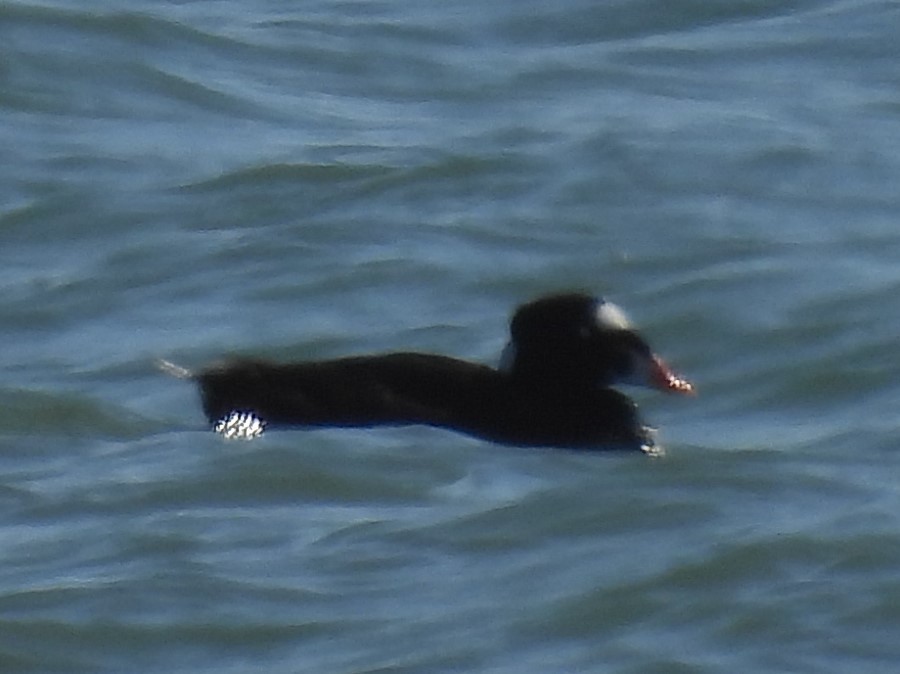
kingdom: Animalia
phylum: Chordata
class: Aves
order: Anseriformes
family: Anatidae
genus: Melanitta
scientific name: Melanitta perspicillata
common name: Surf scoter
